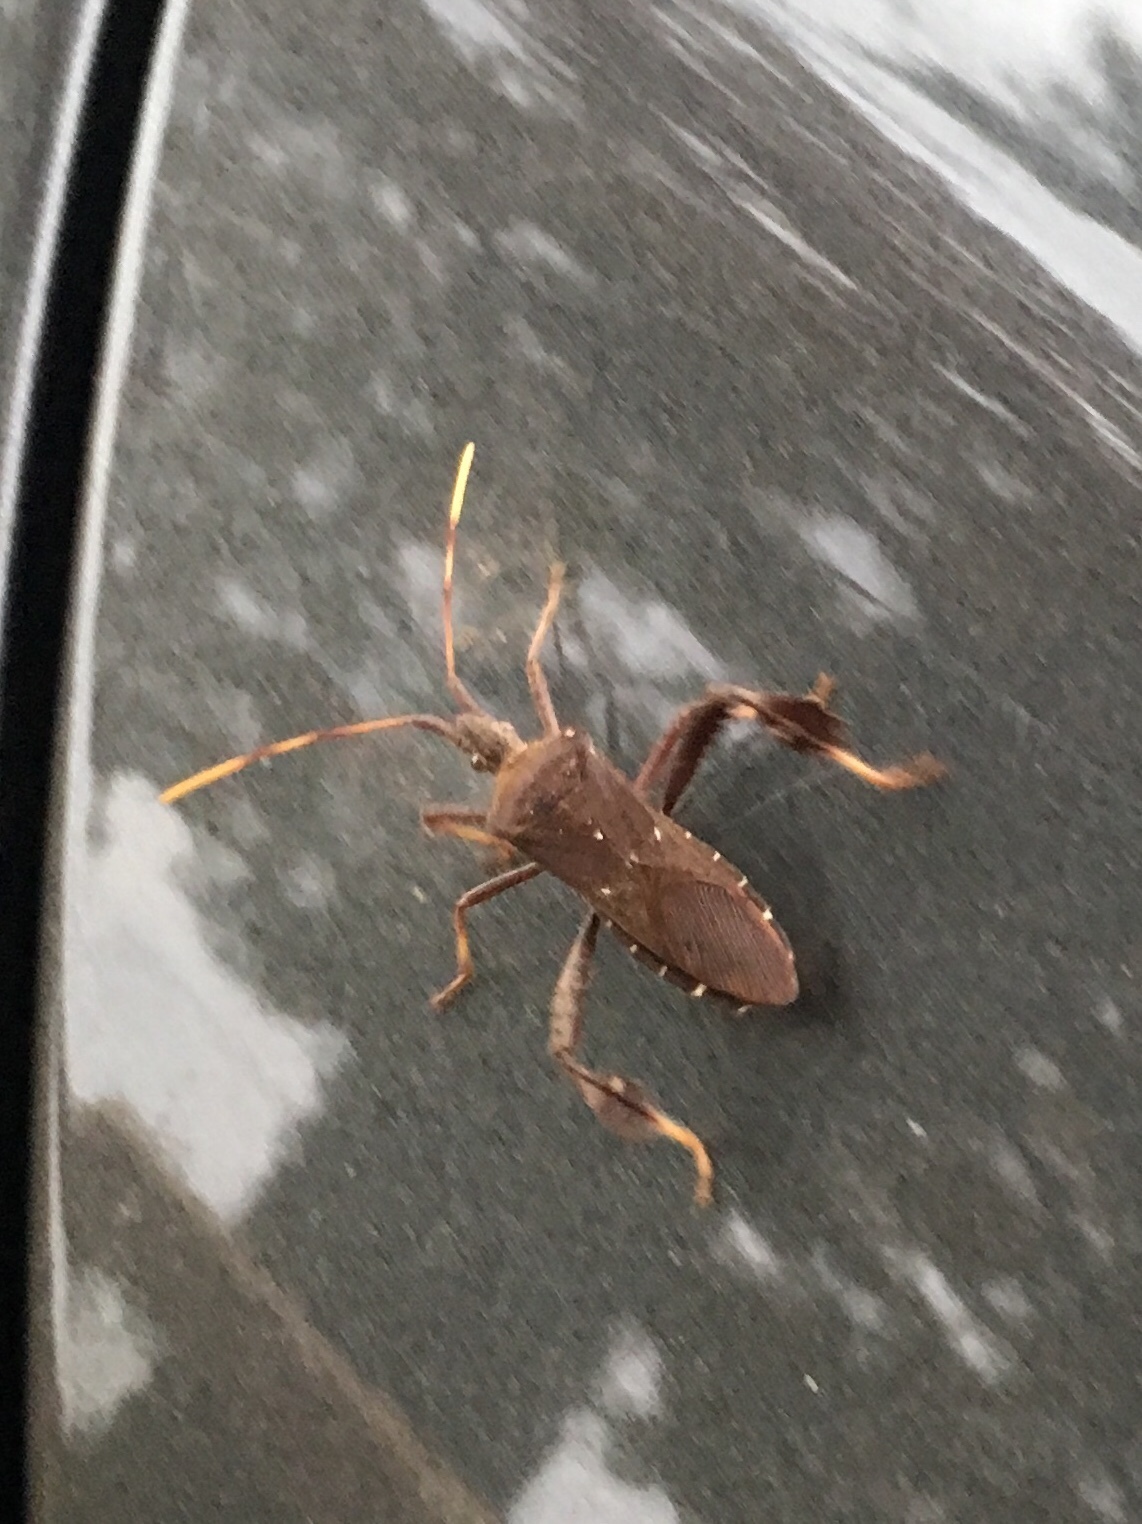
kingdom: Animalia
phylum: Arthropoda
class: Insecta
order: Hemiptera
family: Coreidae
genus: Leptoglossus
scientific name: Leptoglossus oppositus
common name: Northern leaf-footed bug
